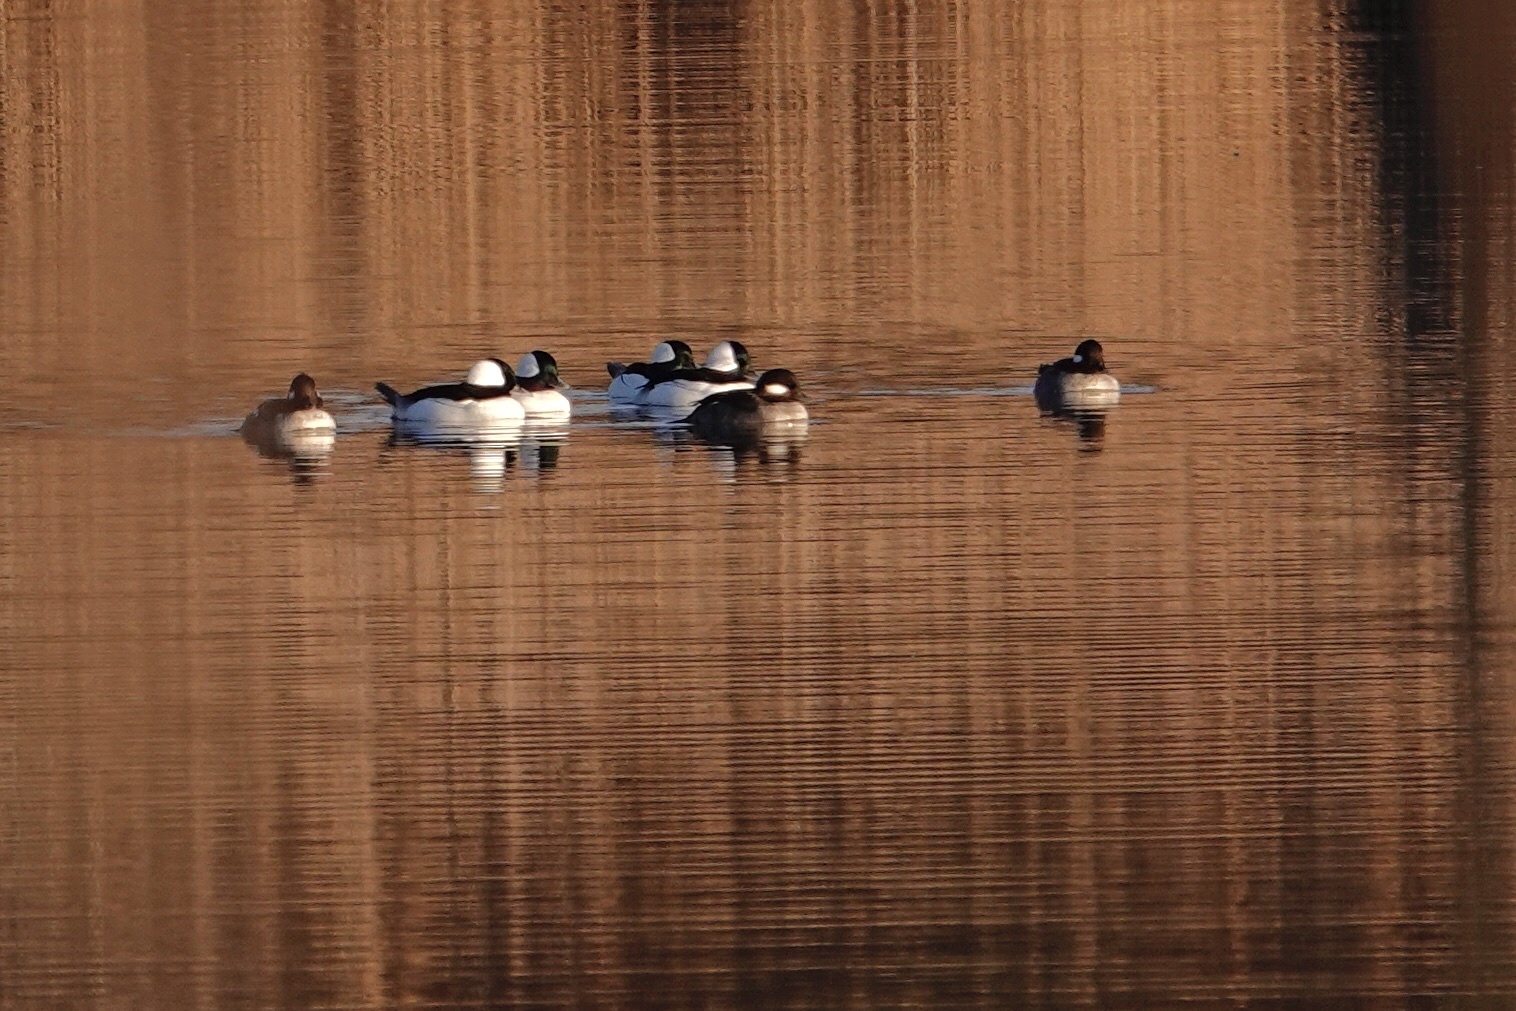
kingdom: Animalia
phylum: Chordata
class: Aves
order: Anseriformes
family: Anatidae
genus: Bucephala
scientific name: Bucephala albeola
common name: Bufflehead
